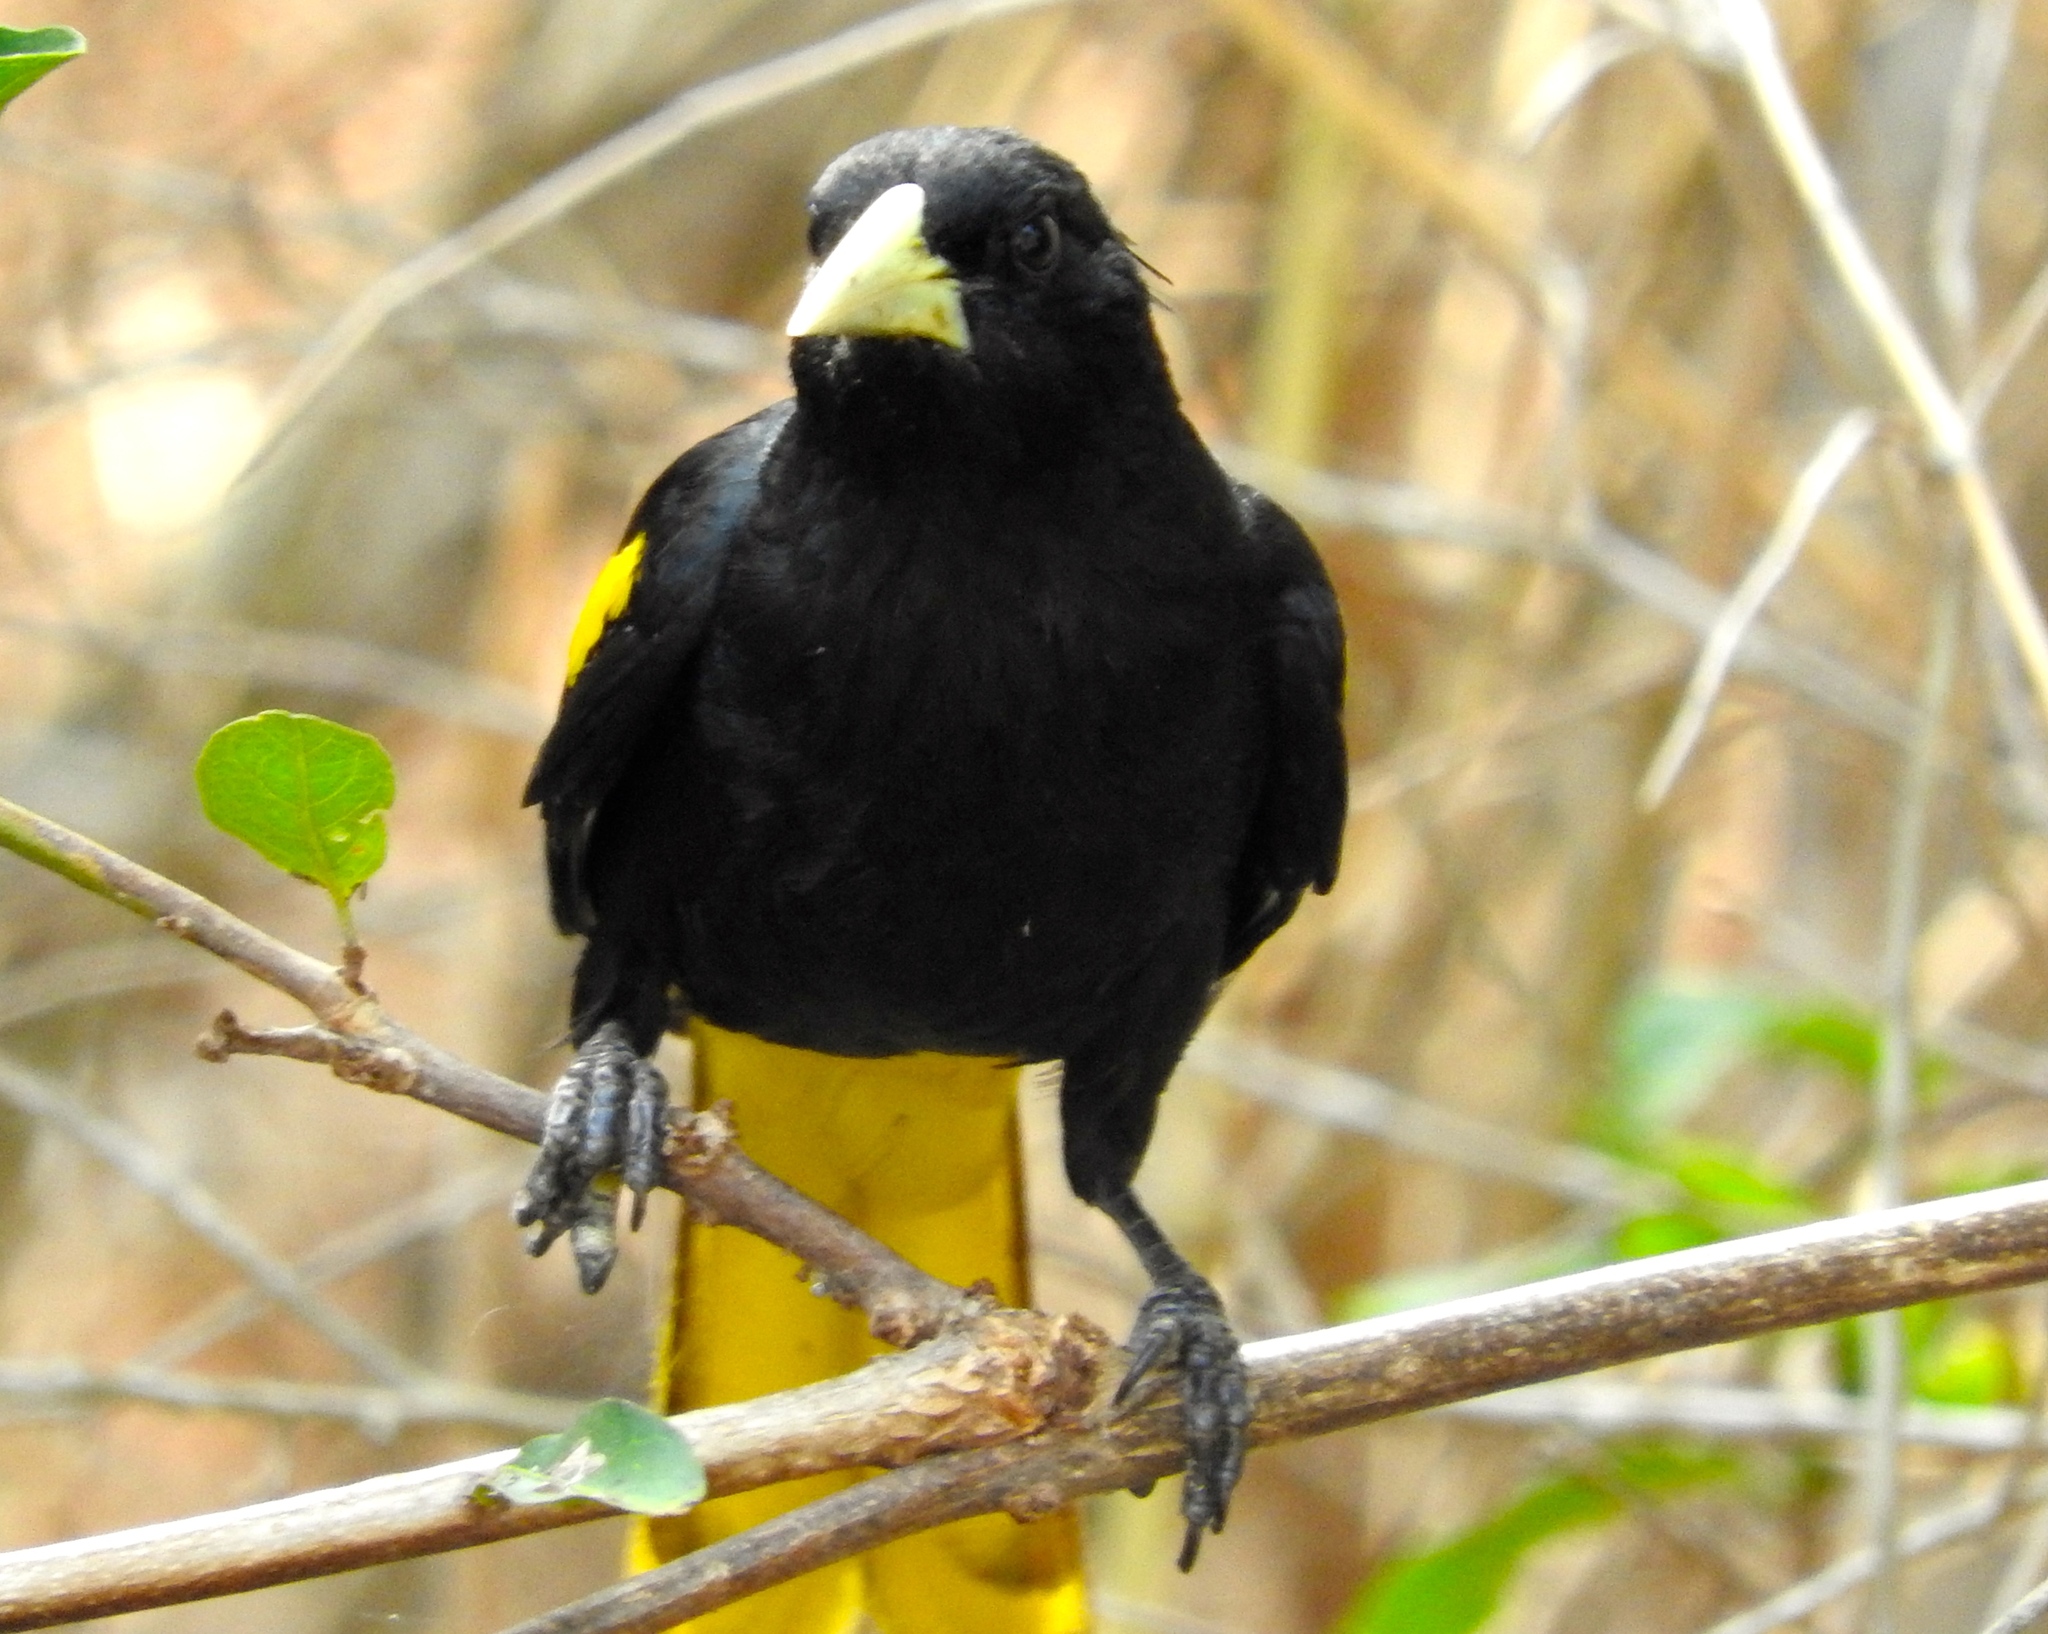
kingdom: Animalia
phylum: Chordata
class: Aves
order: Passeriformes
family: Icteridae
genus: Cacicus
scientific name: Cacicus melanicterus
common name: Yellow-winged cacique
